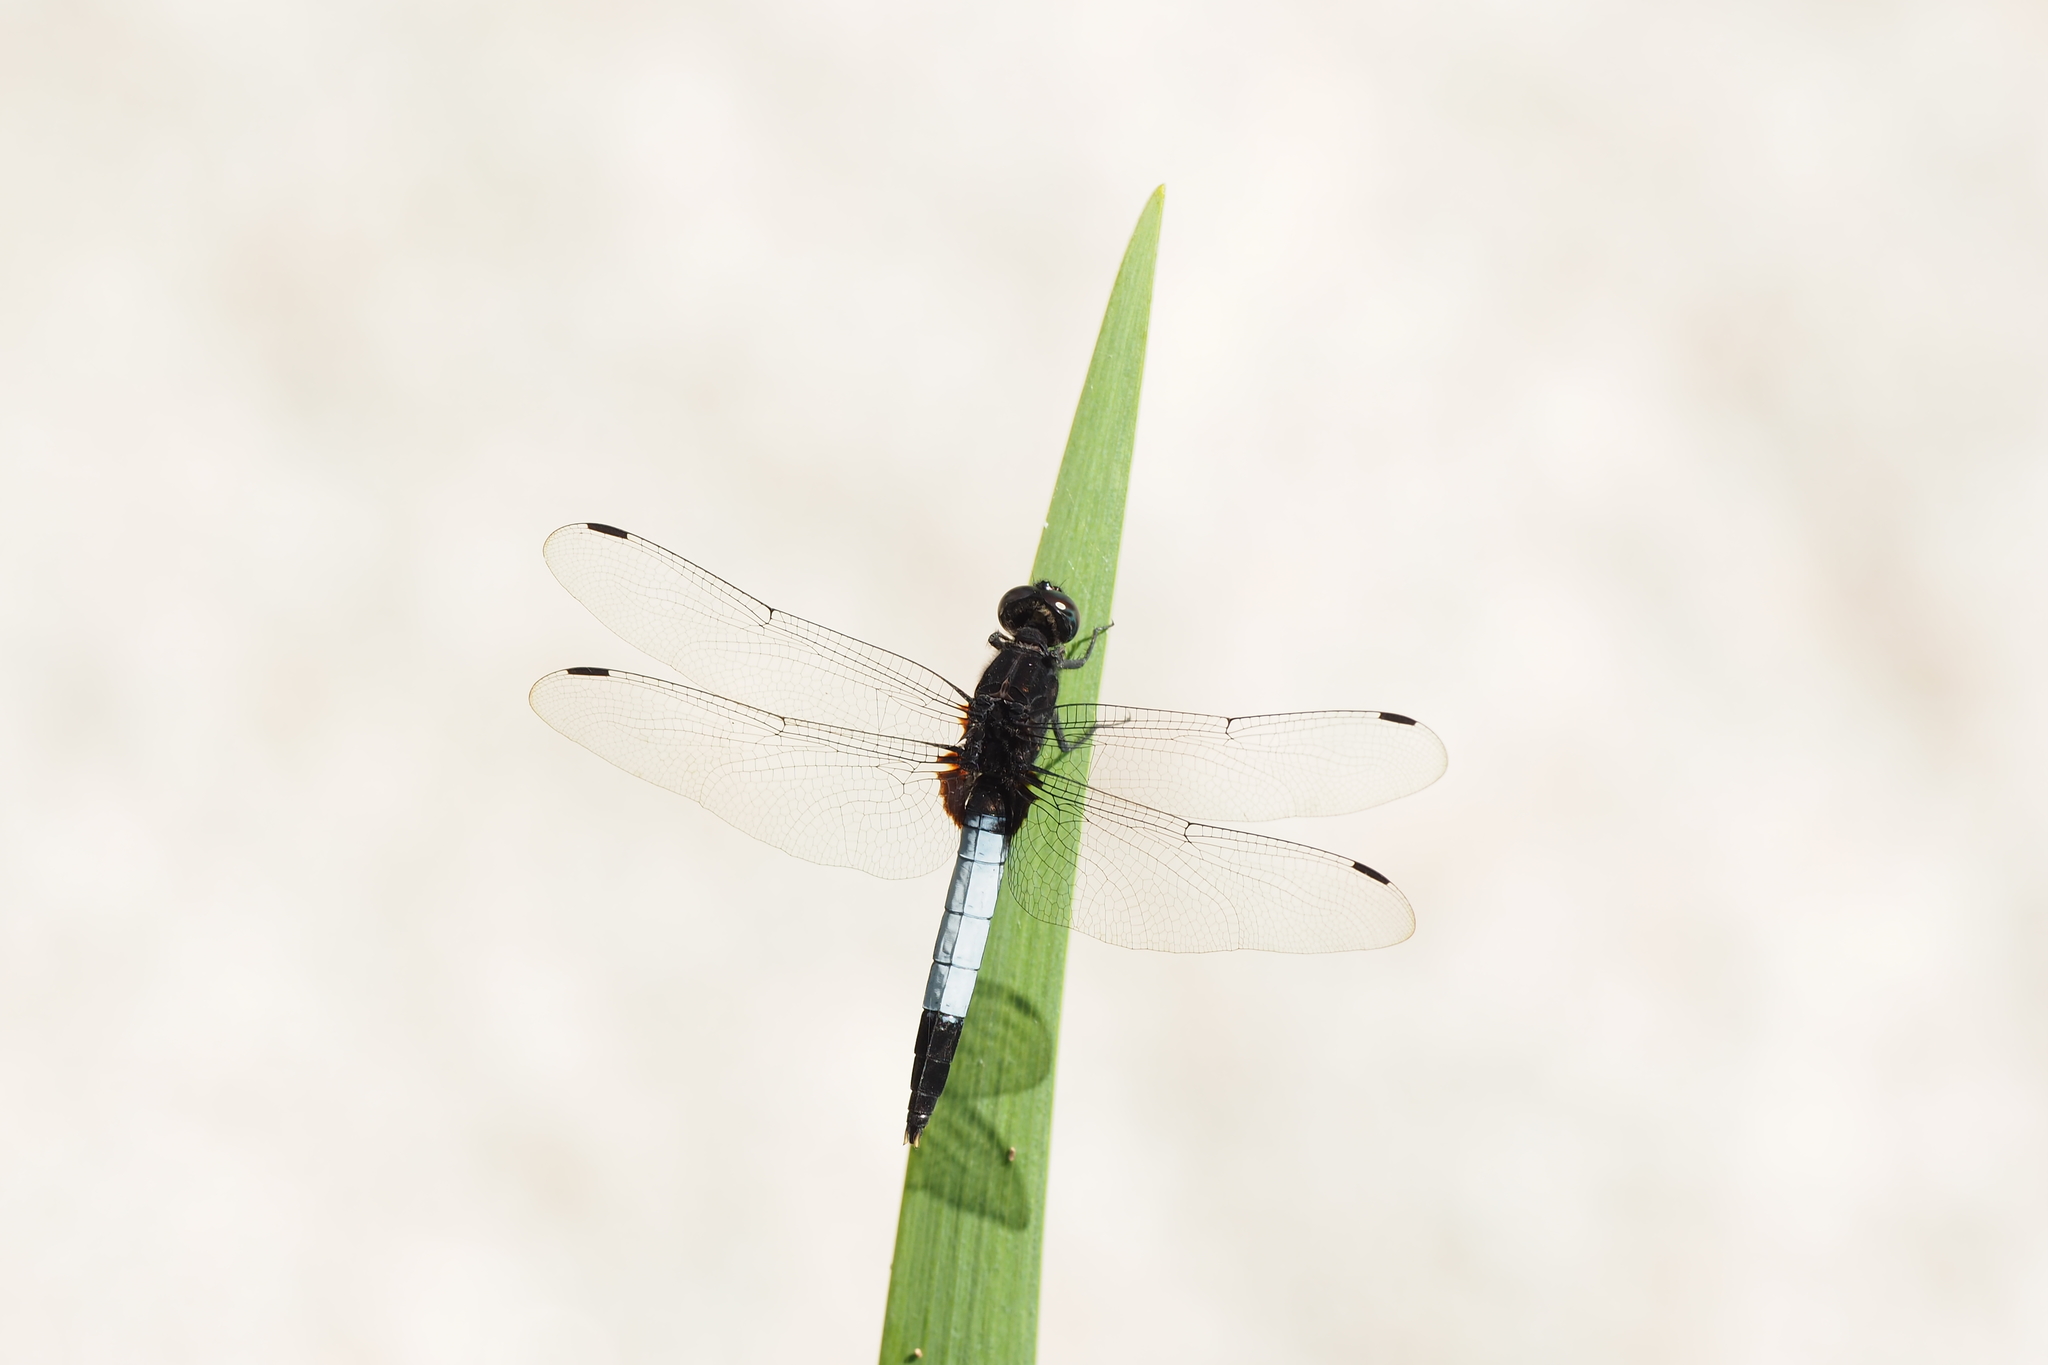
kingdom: Animalia
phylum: Arthropoda
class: Insecta
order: Odonata
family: Libellulidae
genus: Orthetrum
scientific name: Orthetrum triangulare
